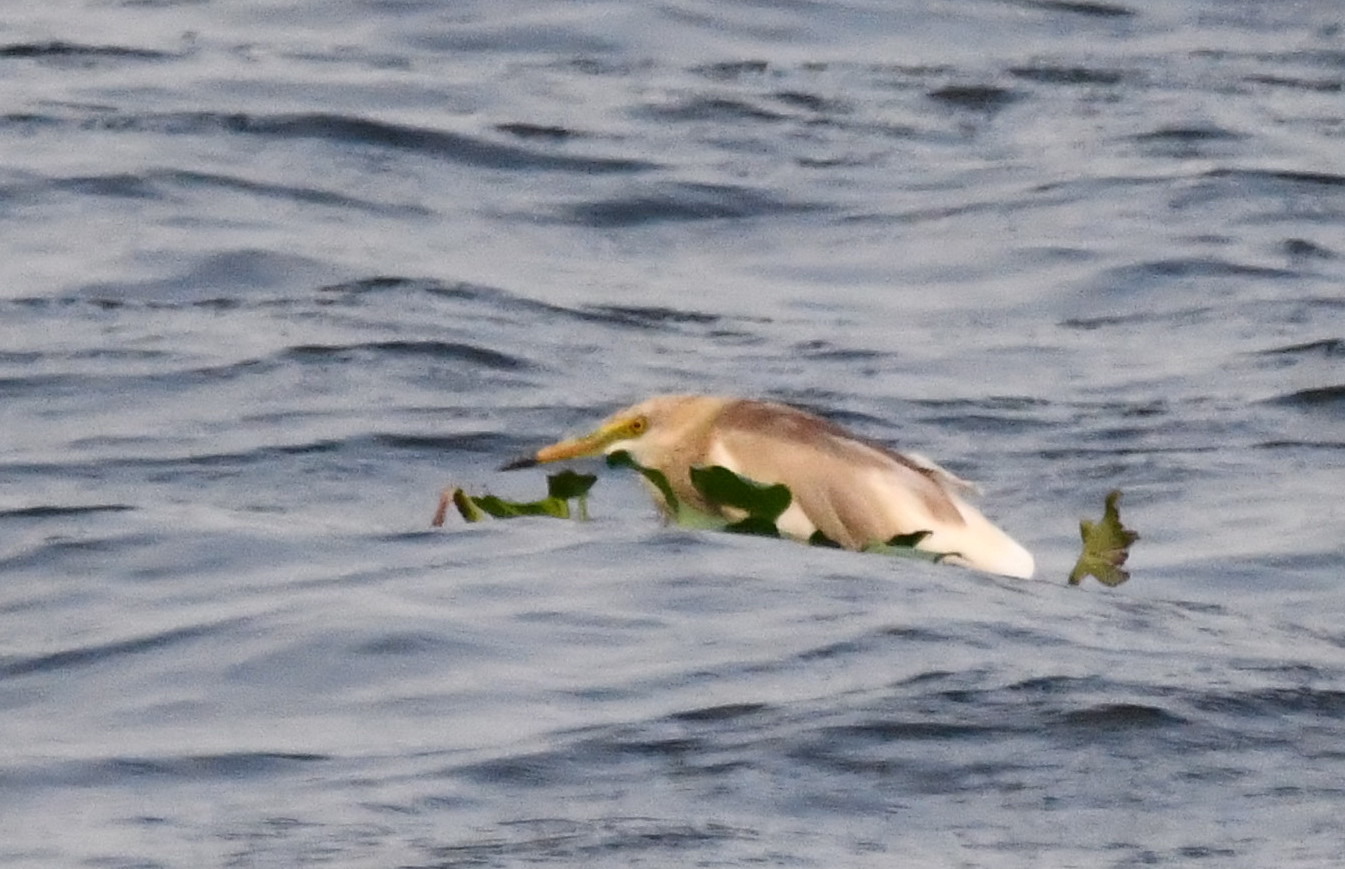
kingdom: Animalia
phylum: Chordata
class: Aves
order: Pelecaniformes
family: Ardeidae
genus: Ardeola
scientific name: Ardeola grayii
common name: Indian pond heron
